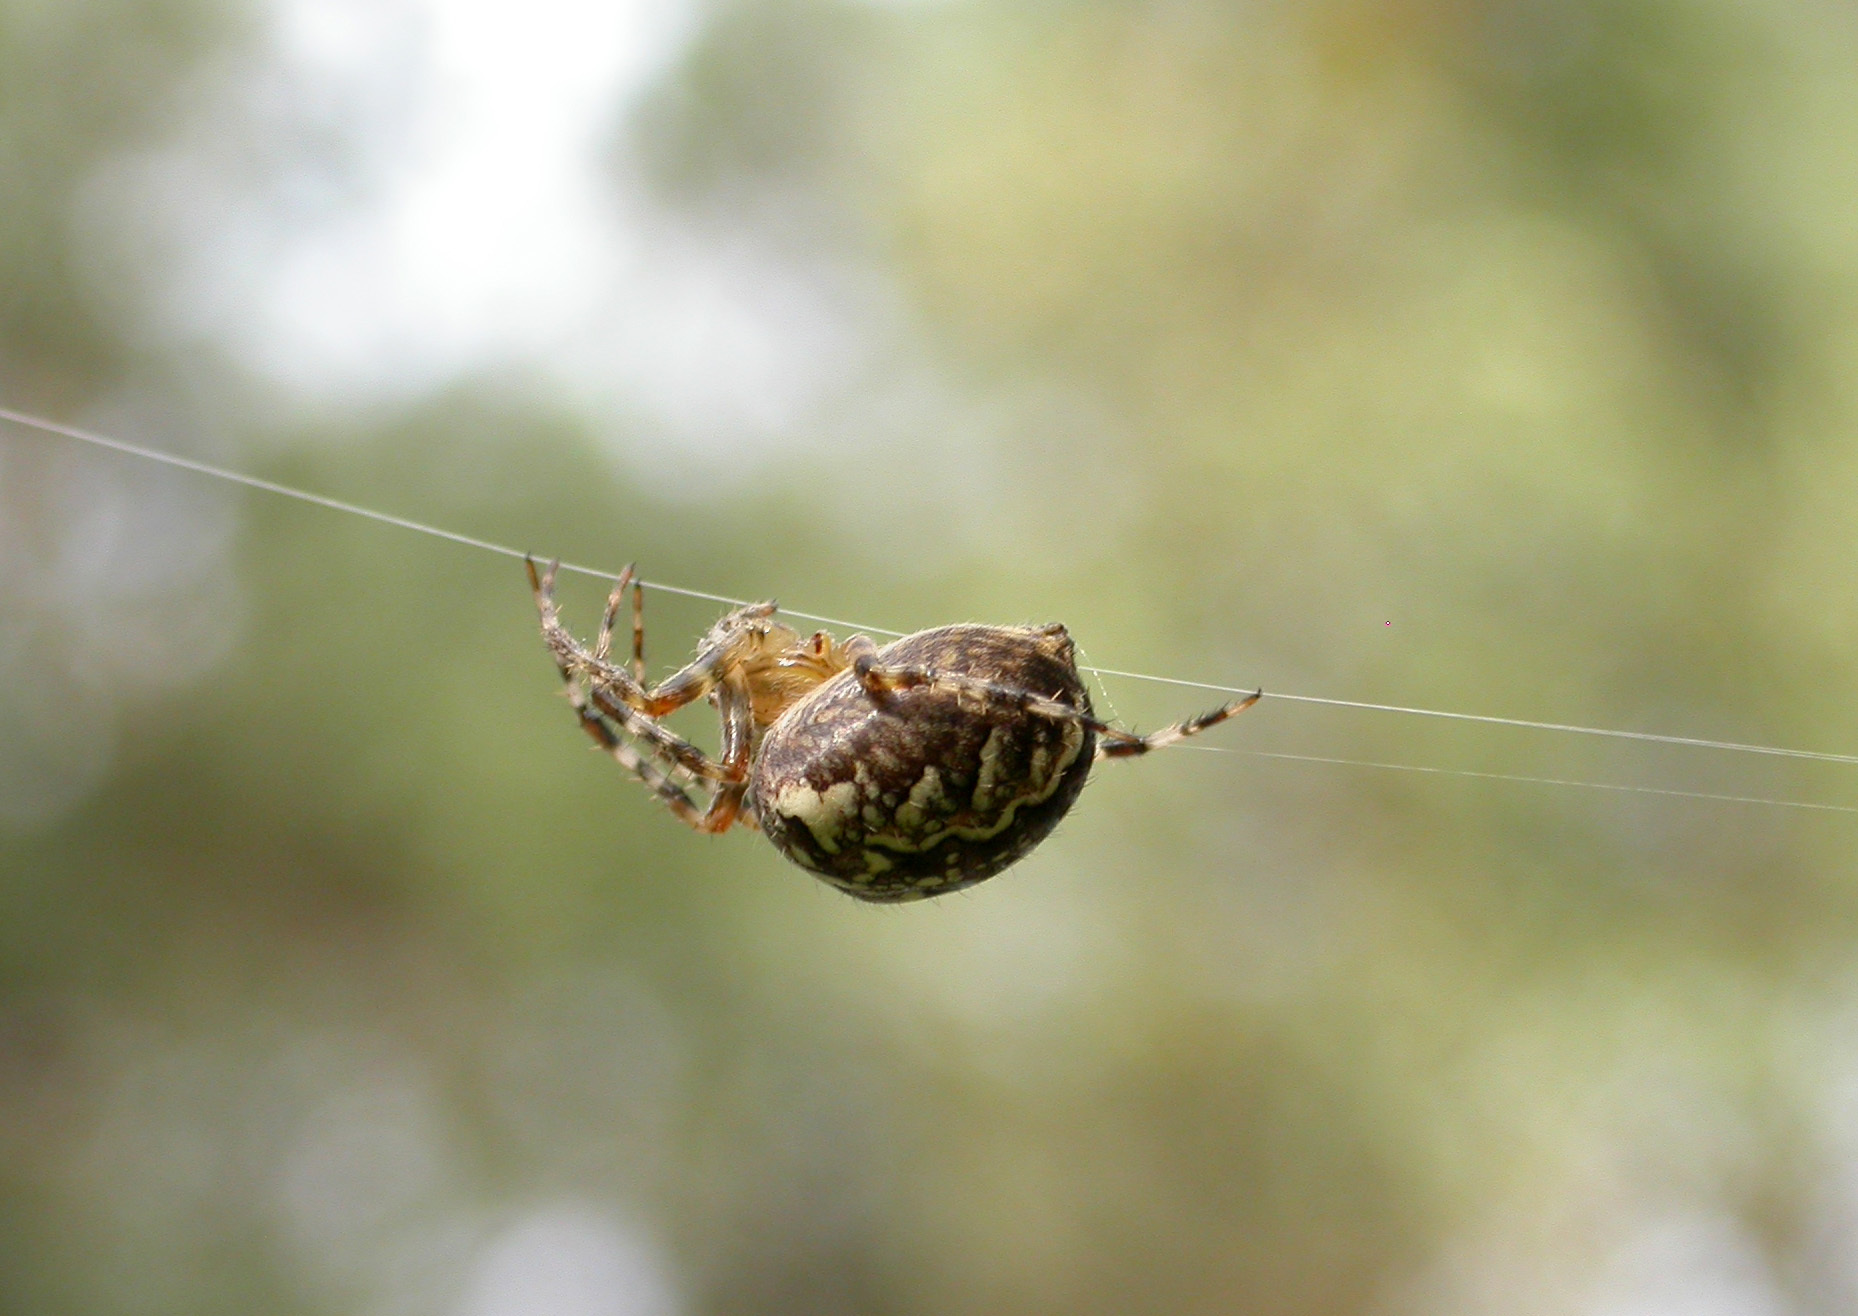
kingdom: Animalia
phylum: Arthropoda
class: Arachnida
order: Araneae
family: Araneidae
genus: Araneus
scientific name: Araneus diadematus
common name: Cross orbweaver
